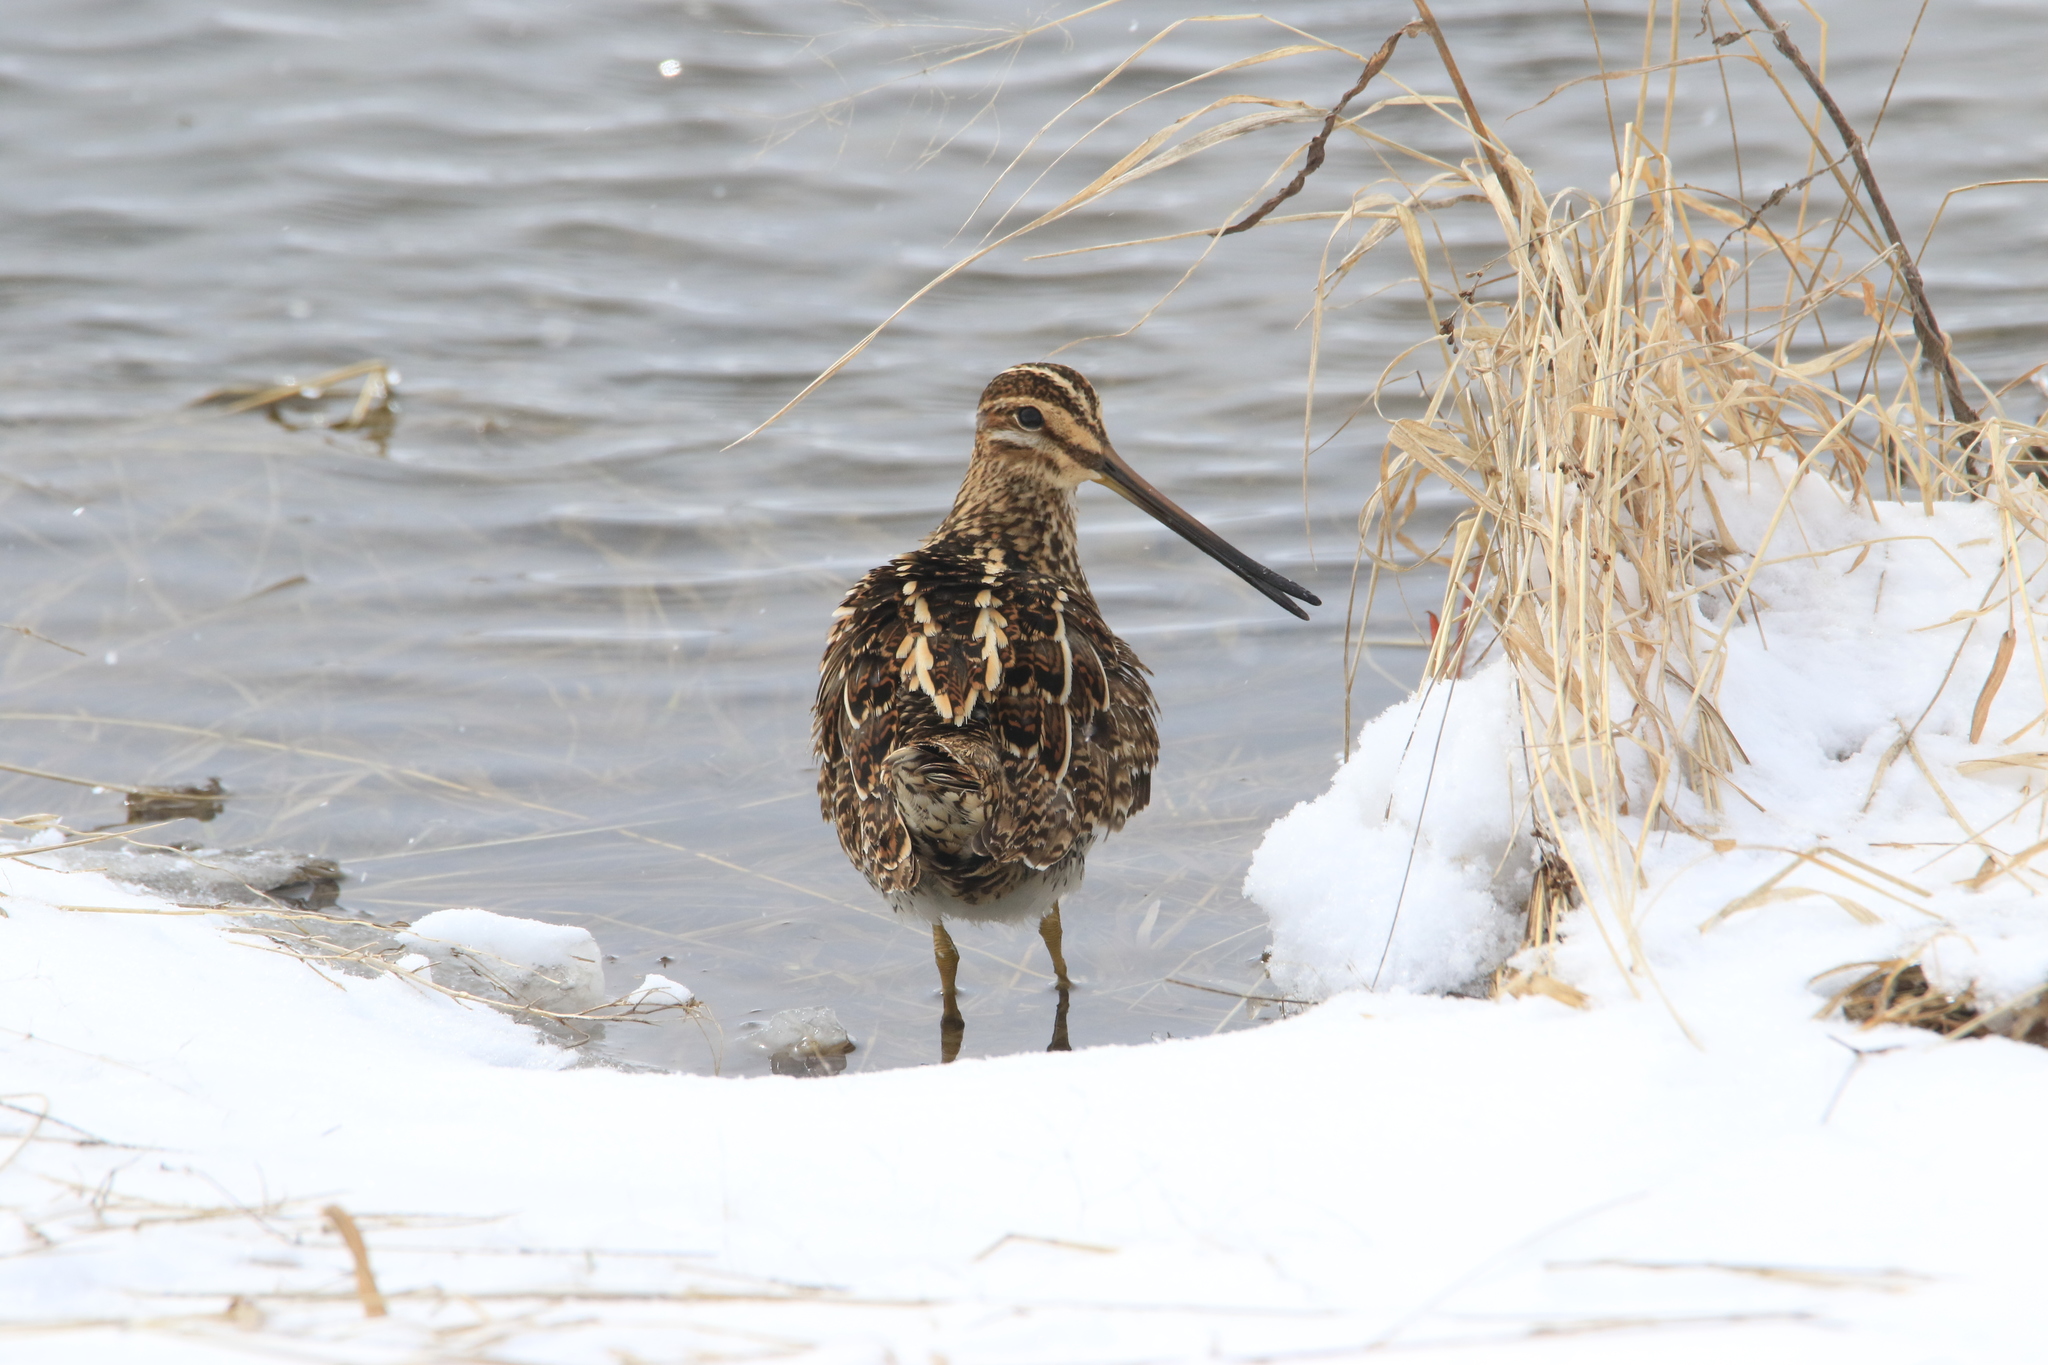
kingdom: Animalia
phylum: Chordata
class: Aves
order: Charadriiformes
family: Scolopacidae
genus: Gallinago
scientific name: Gallinago gallinago
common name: Common snipe
